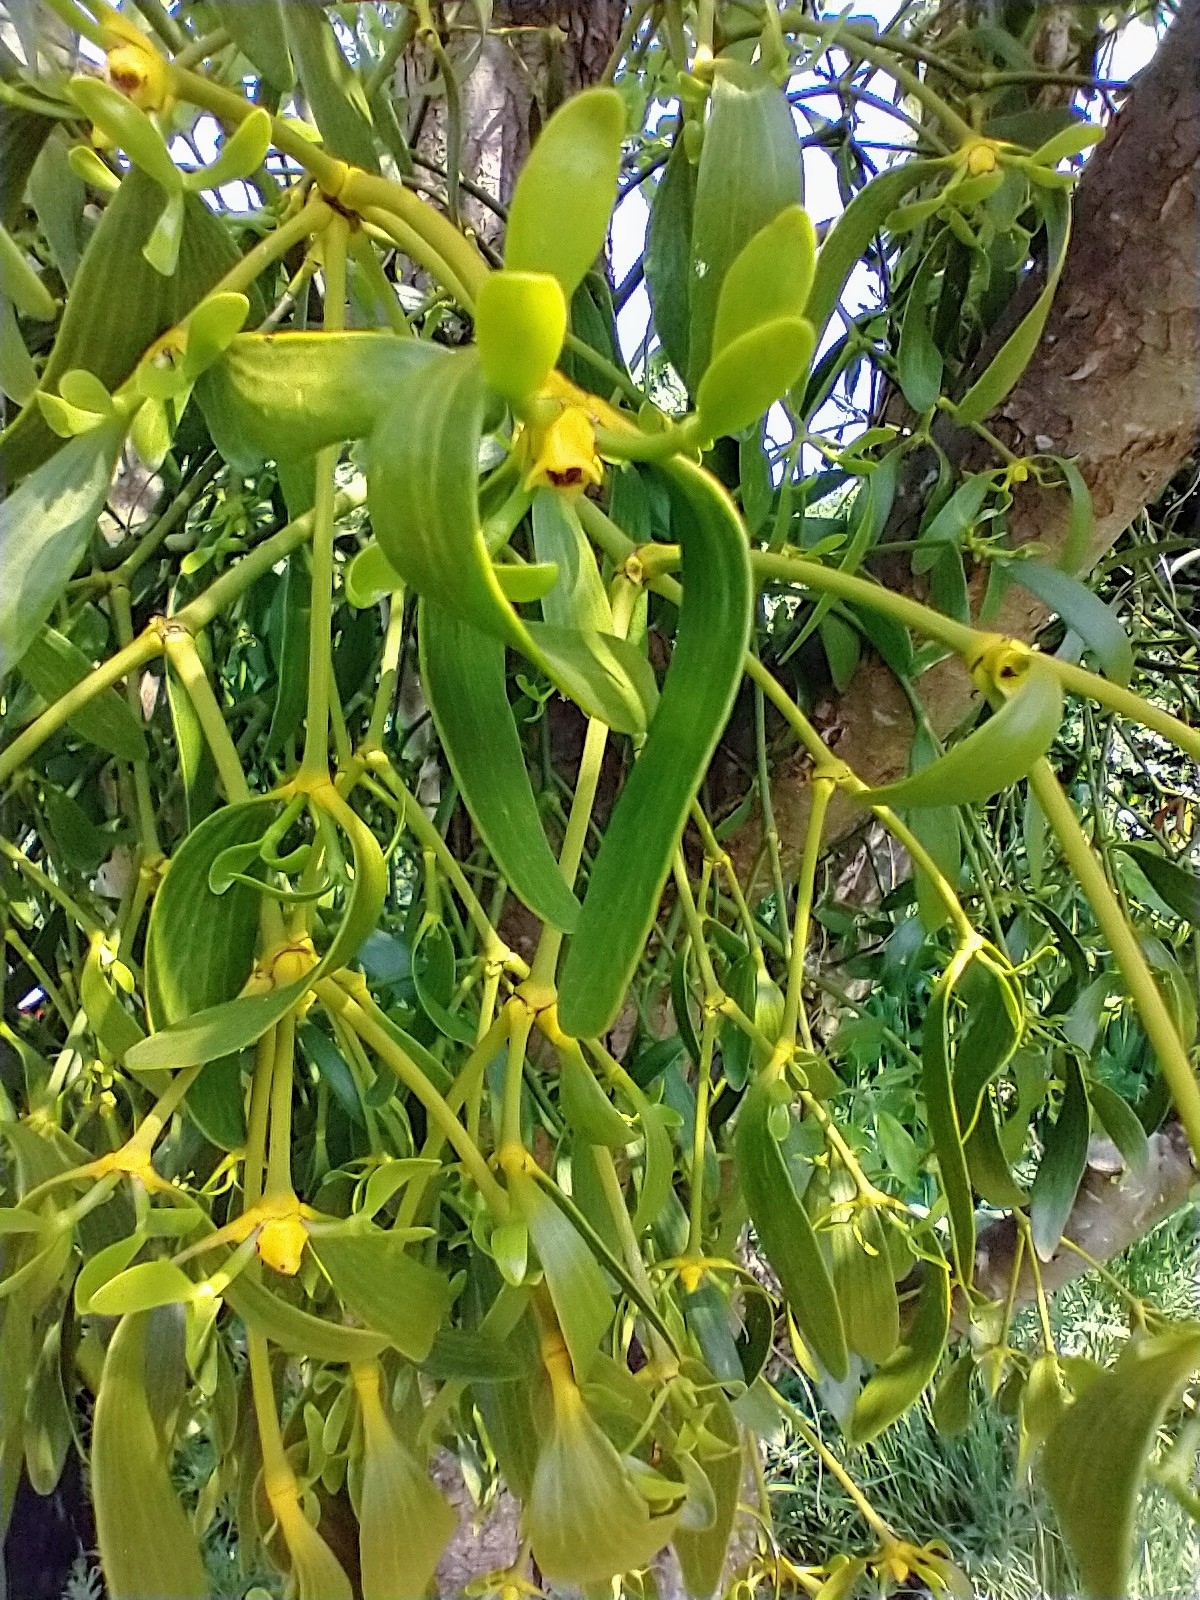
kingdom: Plantae
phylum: Tracheophyta
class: Magnoliopsida
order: Santalales
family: Viscaceae
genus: Viscum
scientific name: Viscum album
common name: Mistletoe
